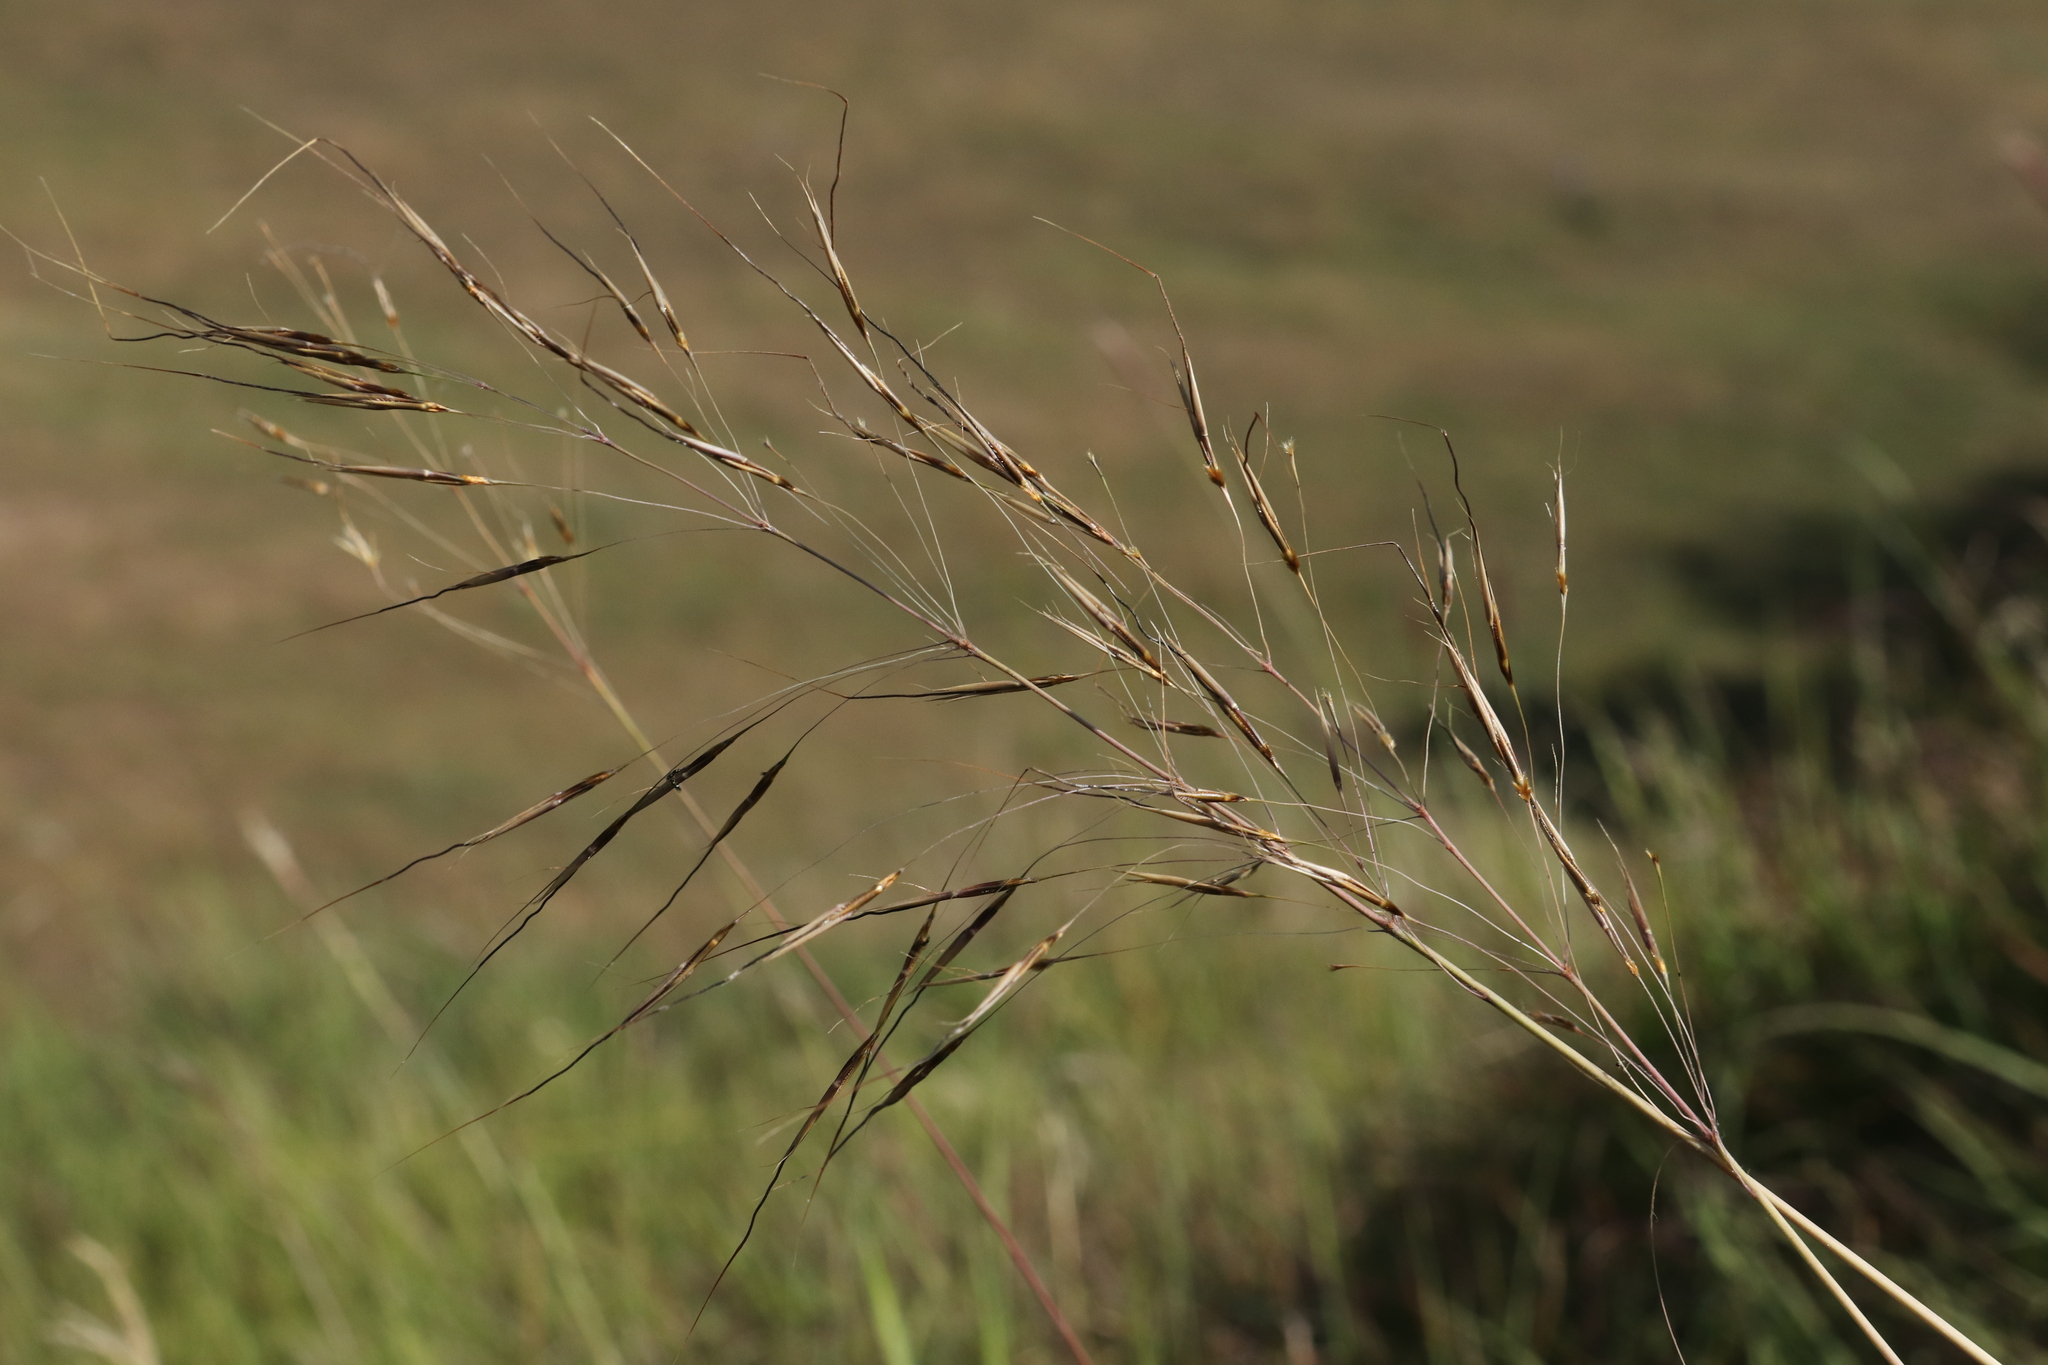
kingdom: Plantae
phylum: Tracheophyta
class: Liliopsida
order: Poales
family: Poaceae
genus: Chrysopogon
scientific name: Chrysopogon gryllus
